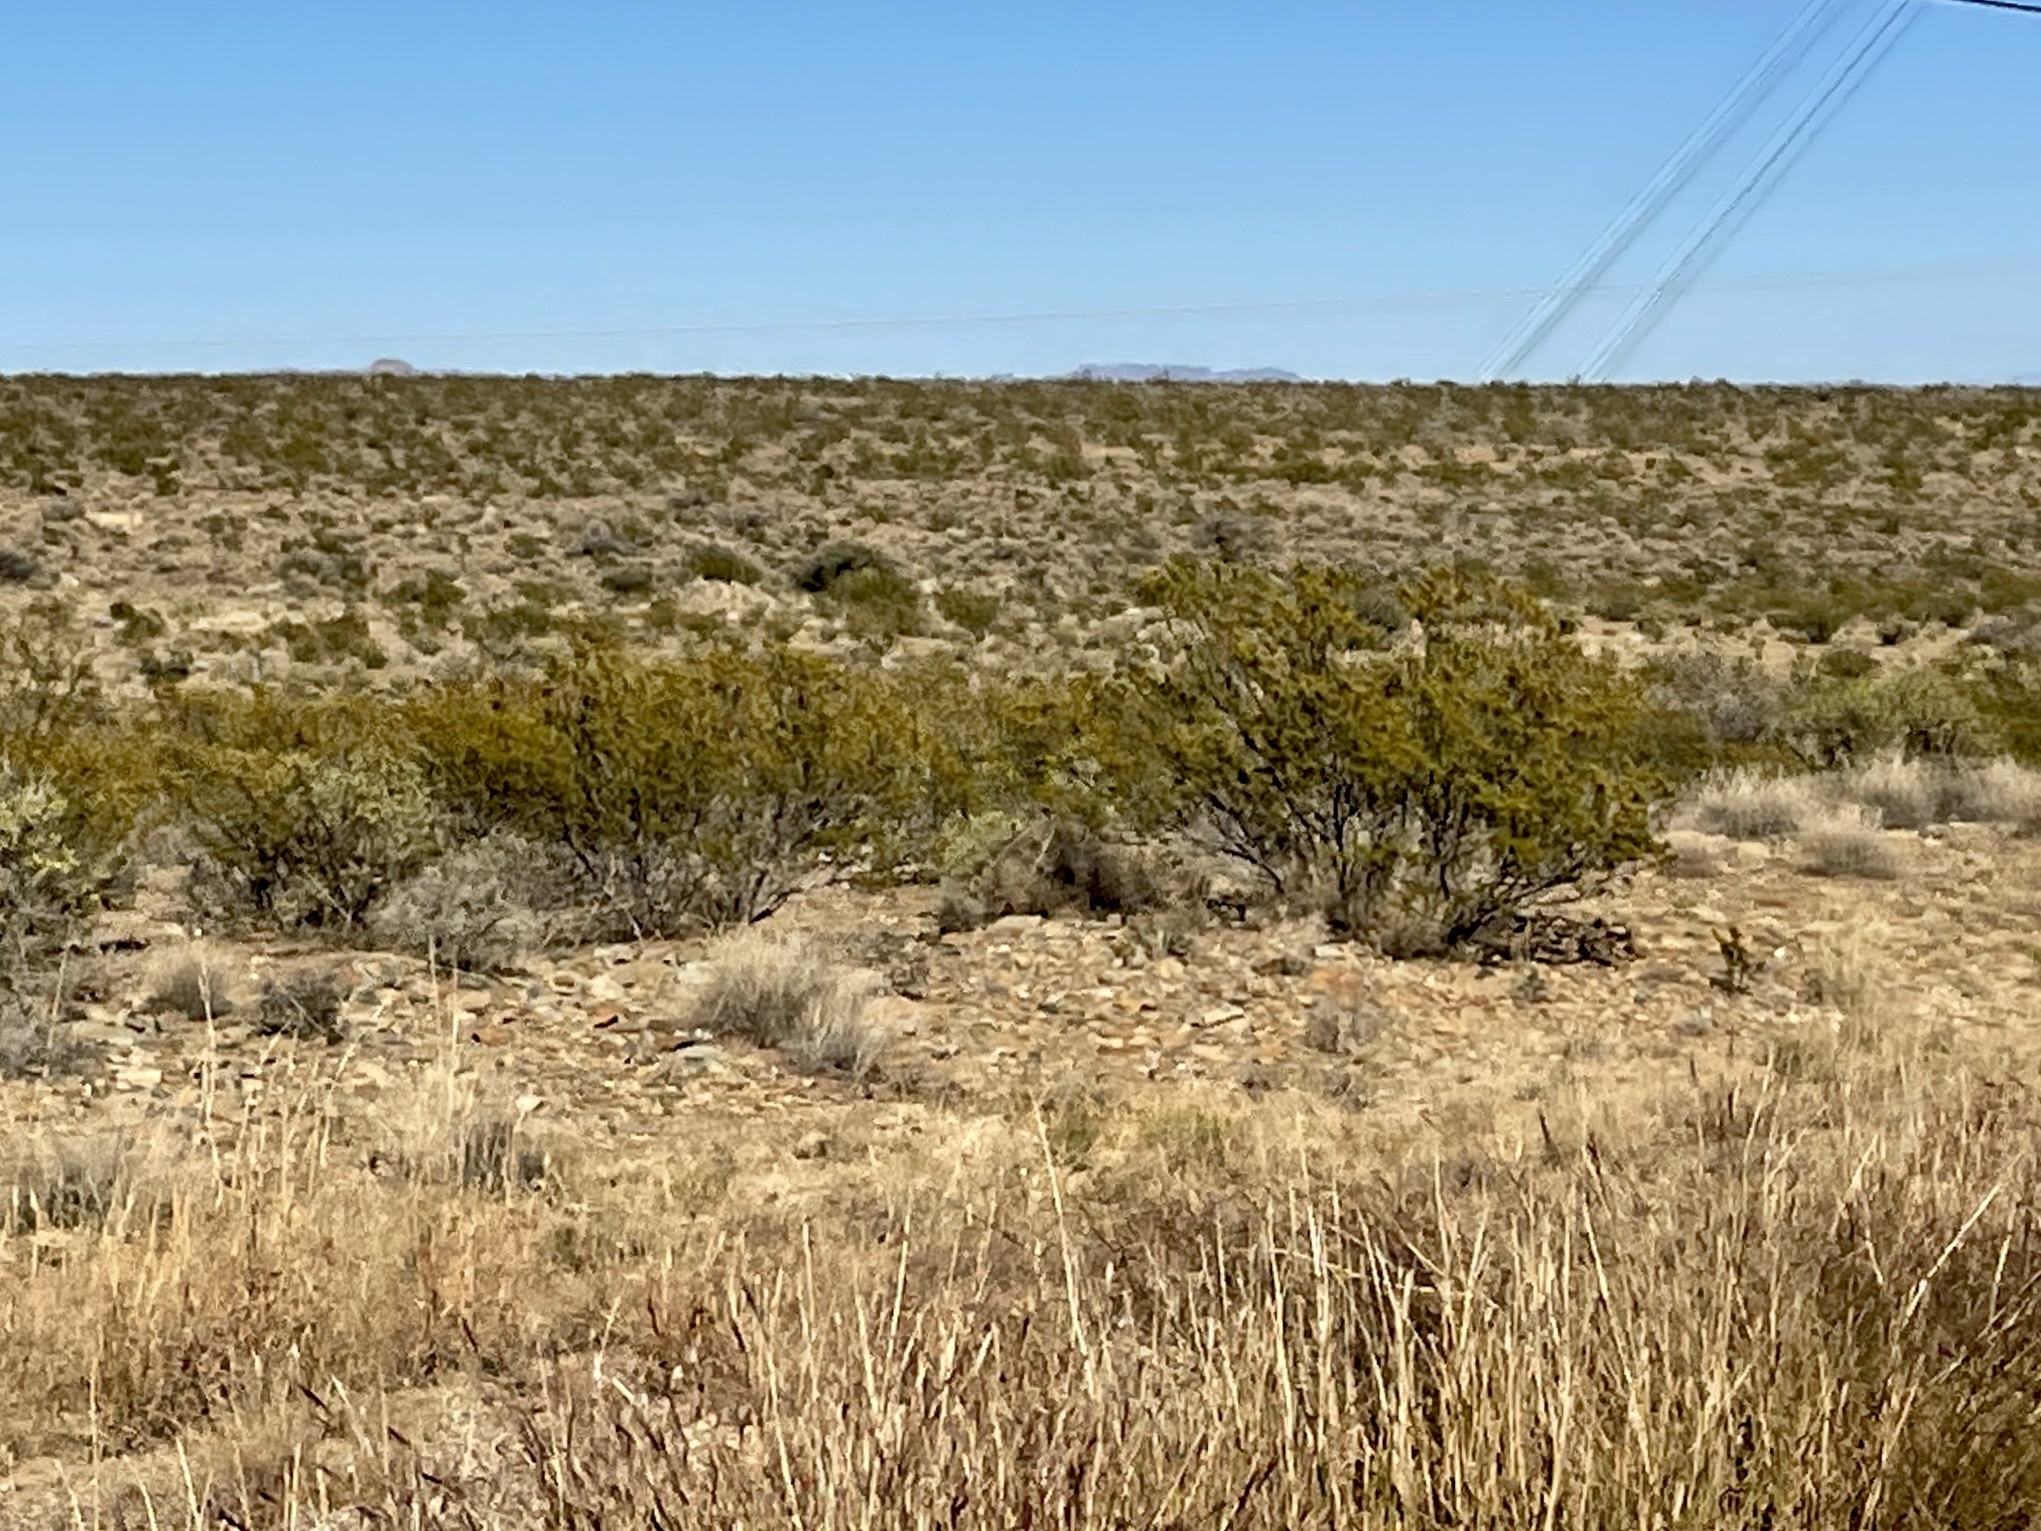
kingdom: Plantae
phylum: Tracheophyta
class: Magnoliopsida
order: Zygophyllales
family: Zygophyllaceae
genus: Larrea
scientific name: Larrea tridentata
